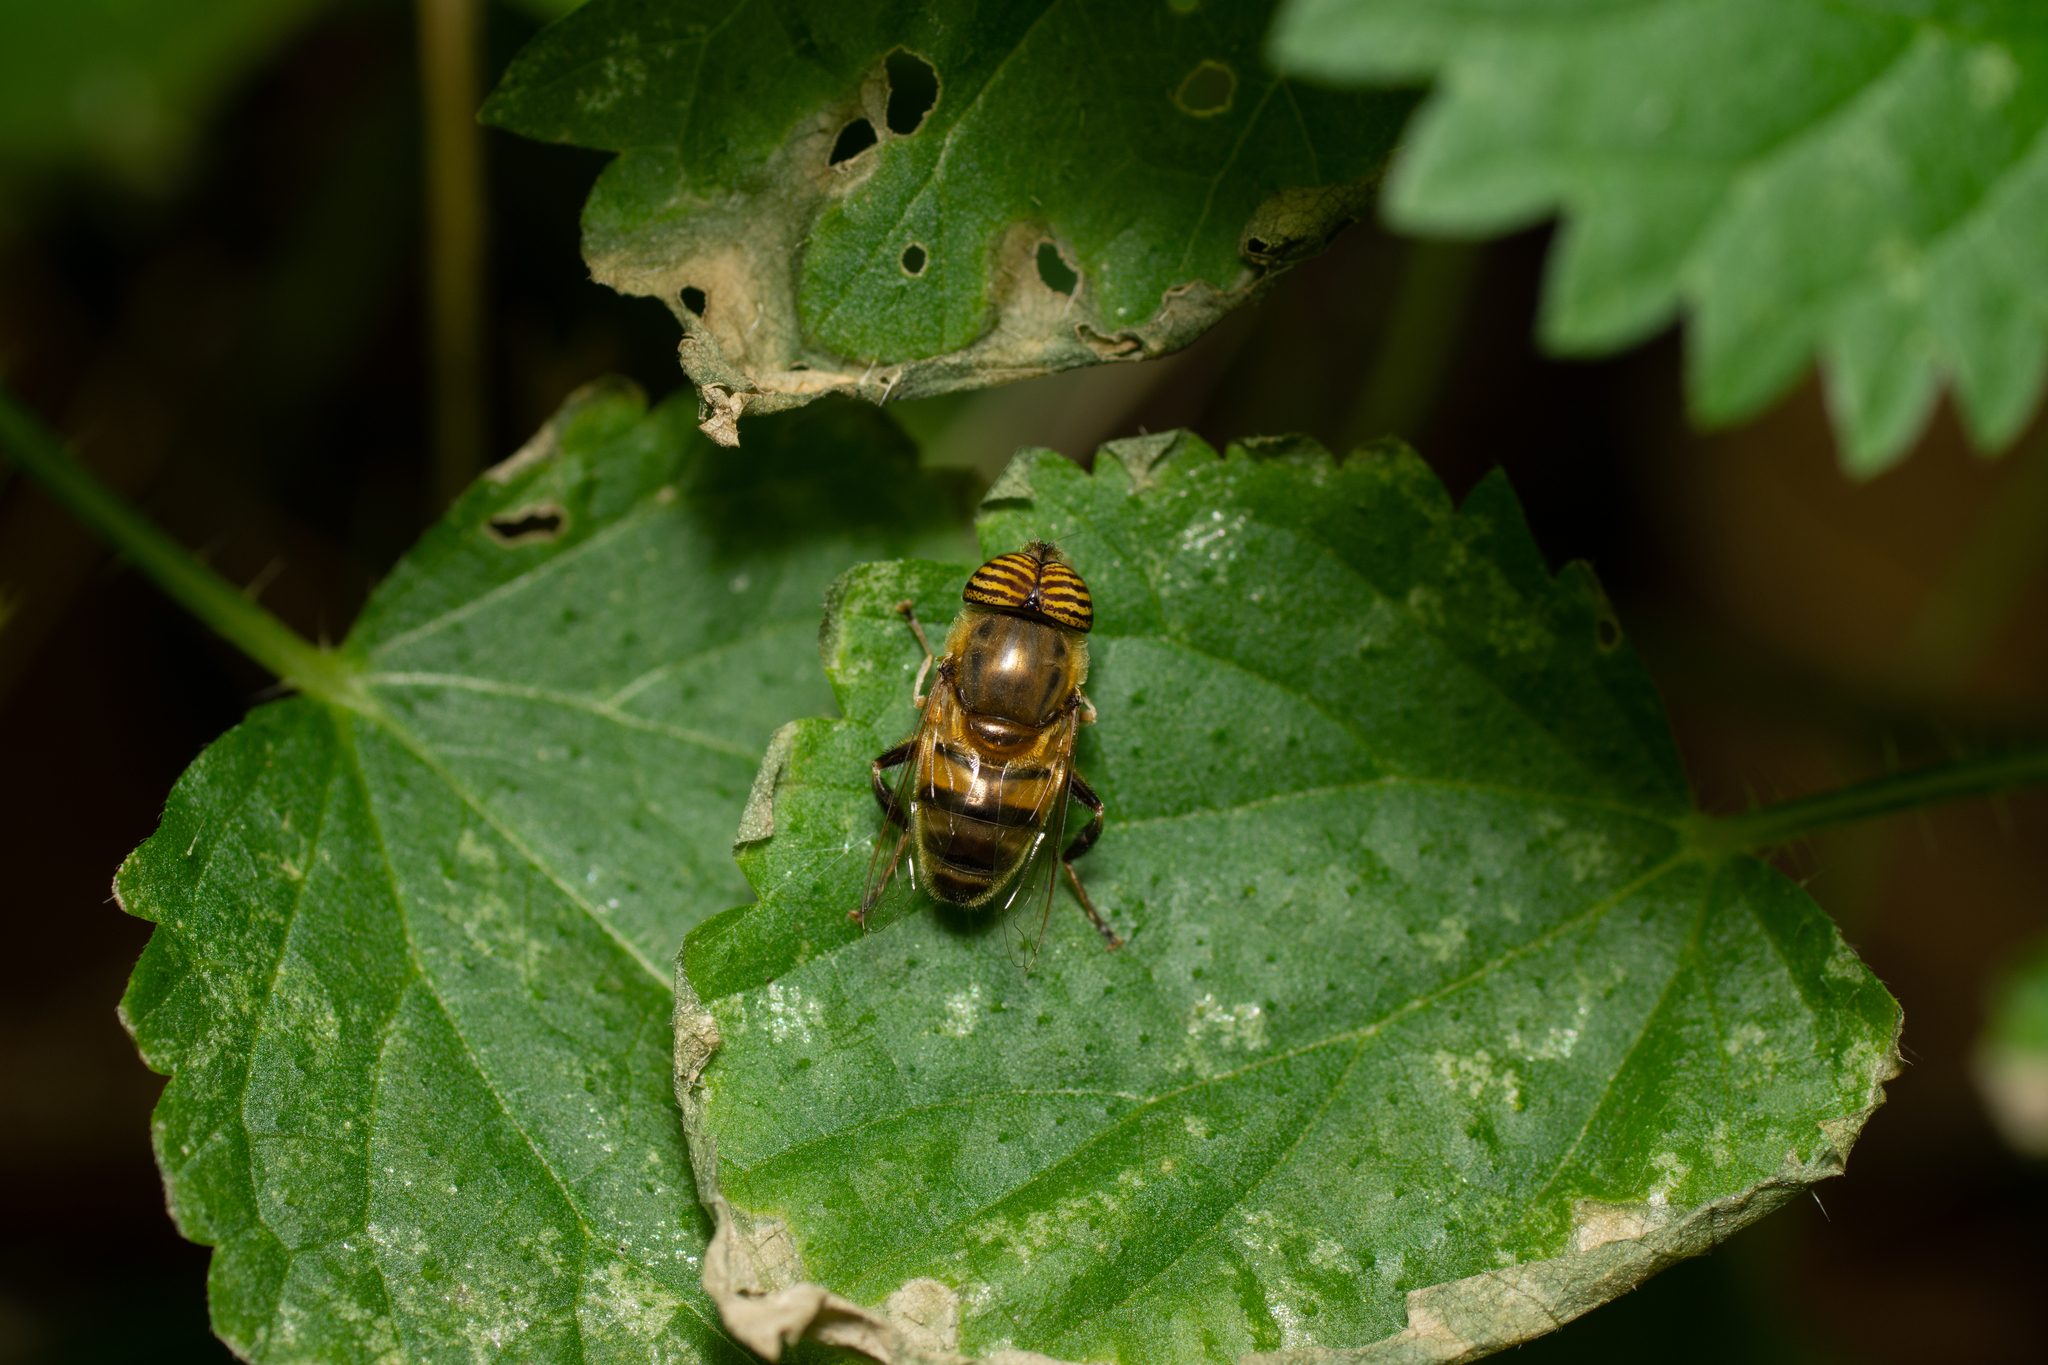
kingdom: Animalia
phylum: Arthropoda
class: Insecta
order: Diptera
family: Syrphidae
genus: Eristalinus
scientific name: Eristalinus taeniops
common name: Syrphid fly
